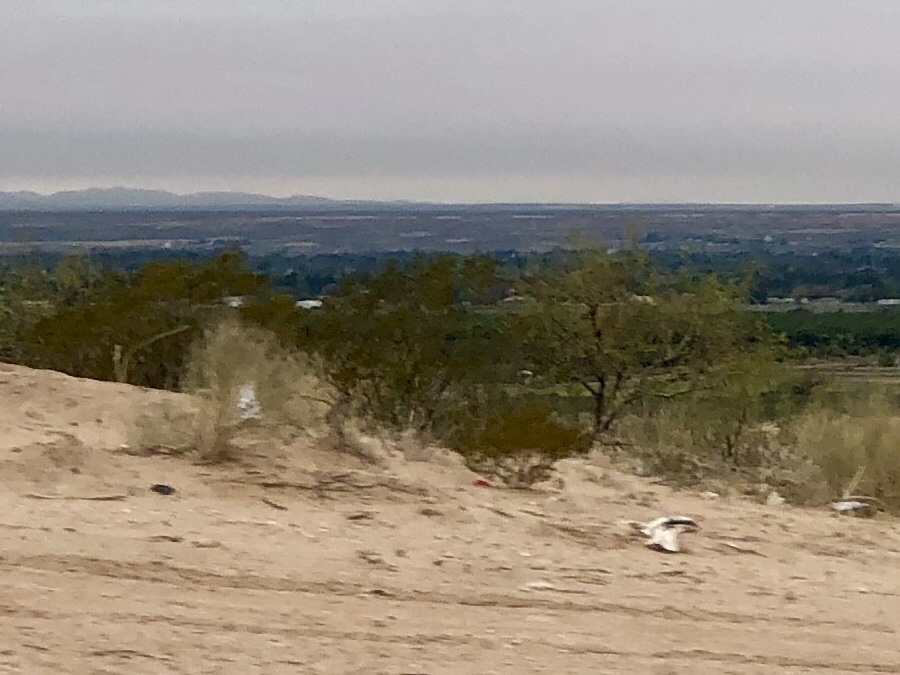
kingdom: Plantae
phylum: Tracheophyta
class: Magnoliopsida
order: Zygophyllales
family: Zygophyllaceae
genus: Larrea
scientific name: Larrea tridentata
